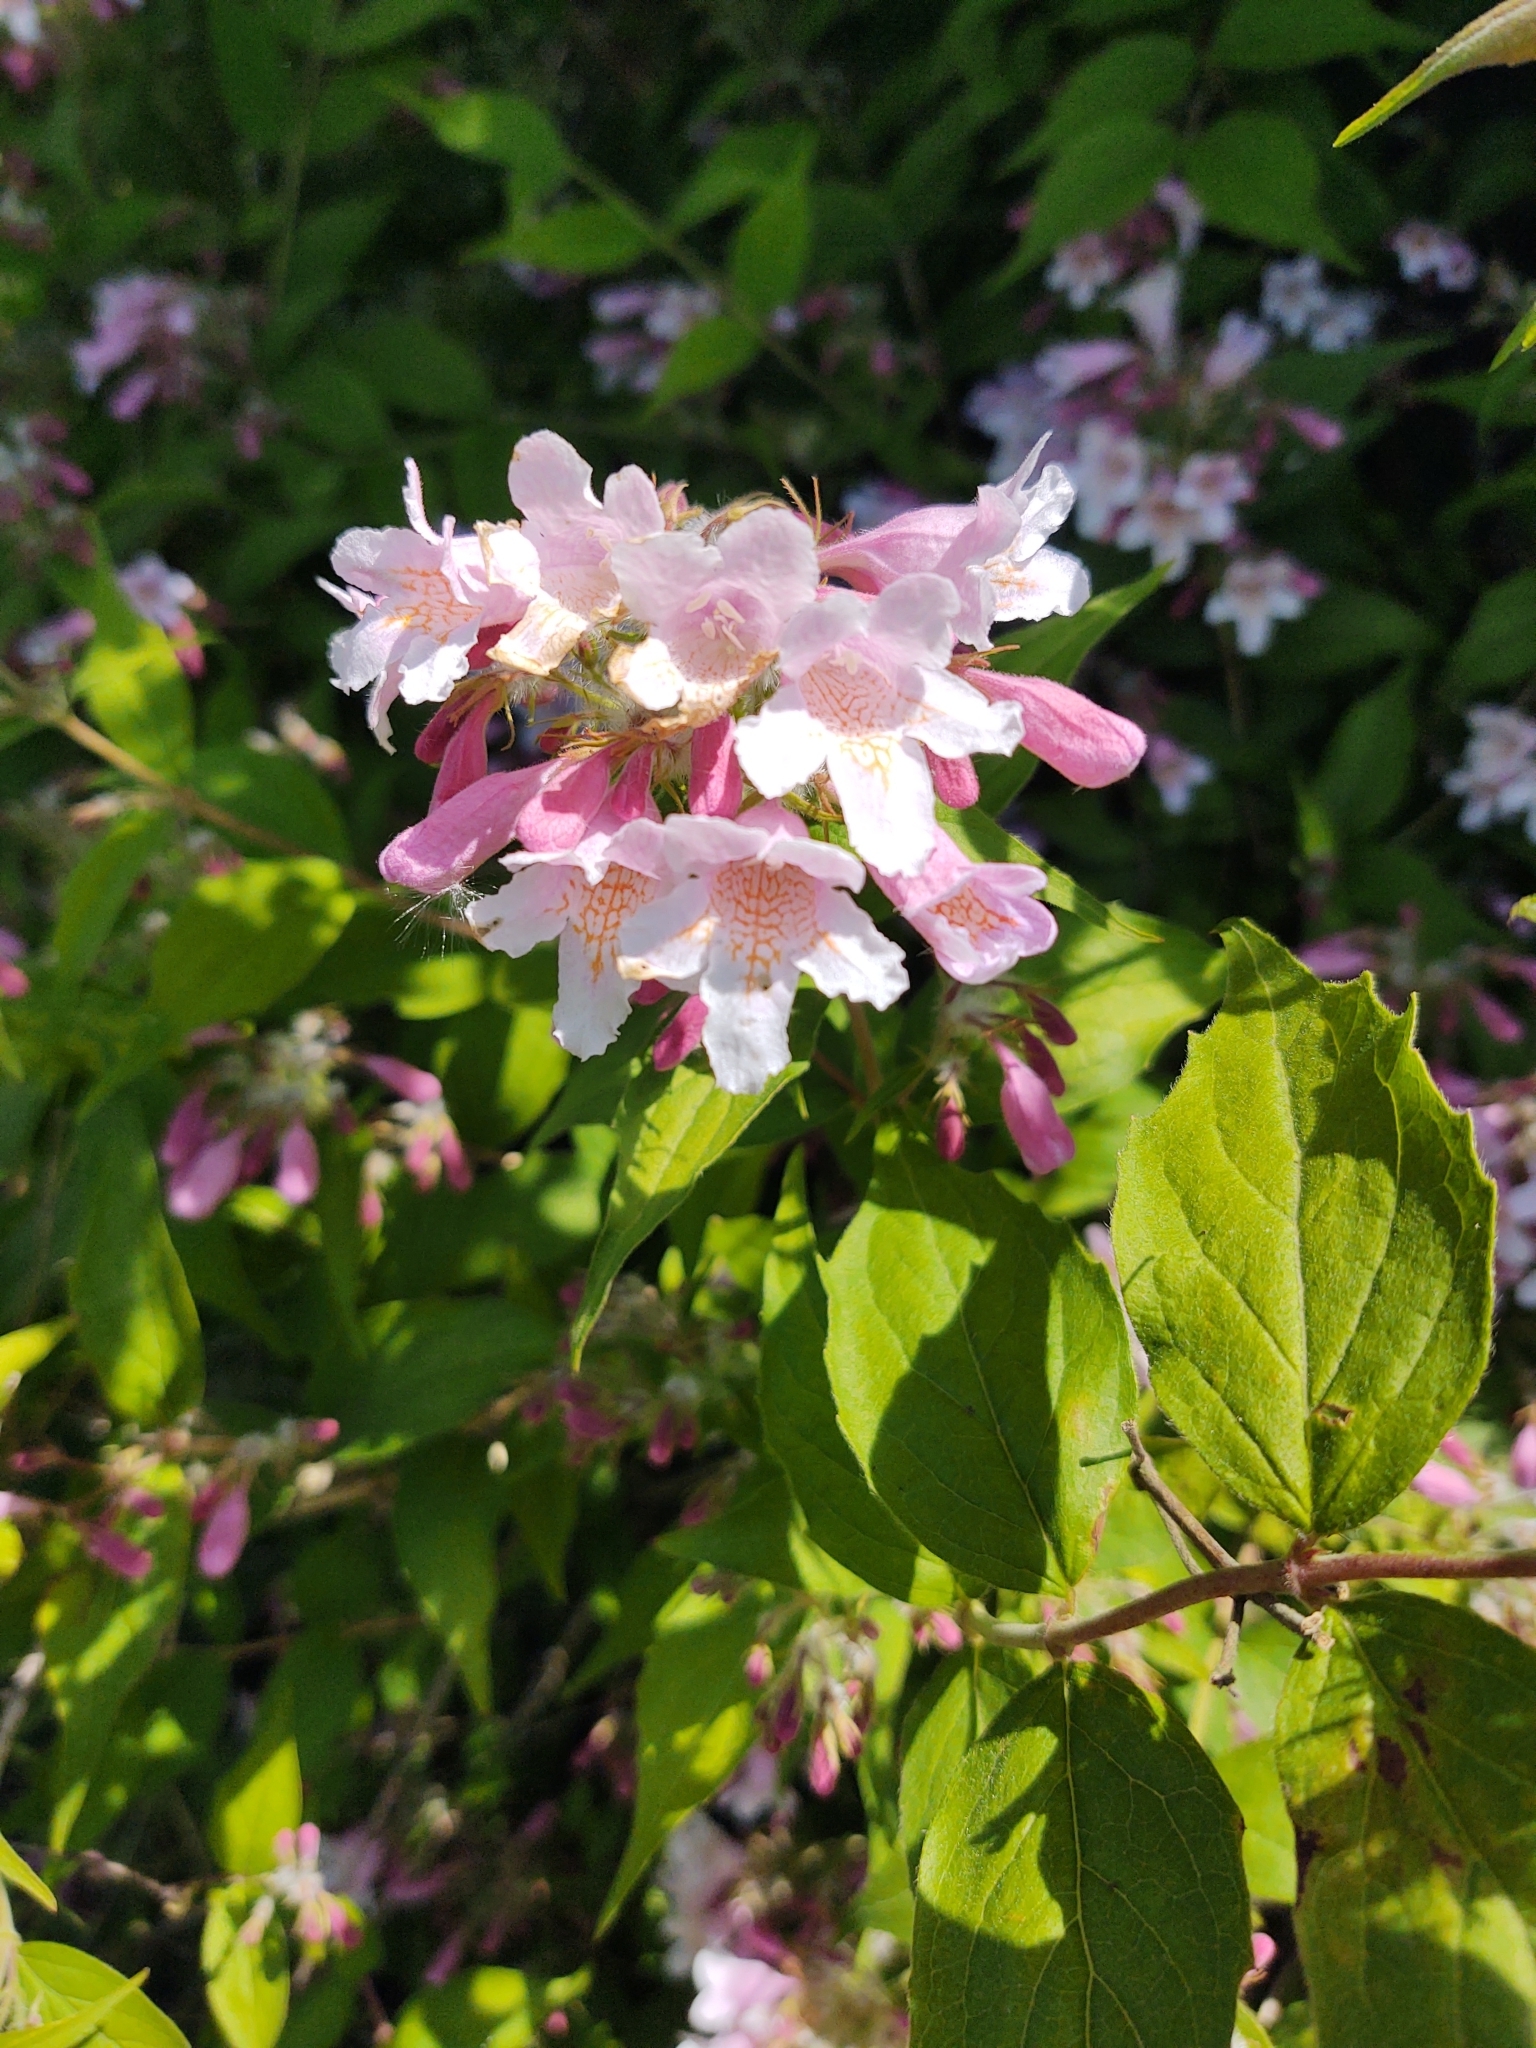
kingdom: Plantae
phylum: Tracheophyta
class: Magnoliopsida
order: Dipsacales
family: Caprifoliaceae
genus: Kolkwitzia
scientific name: Kolkwitzia amabilis
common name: Beautybush
